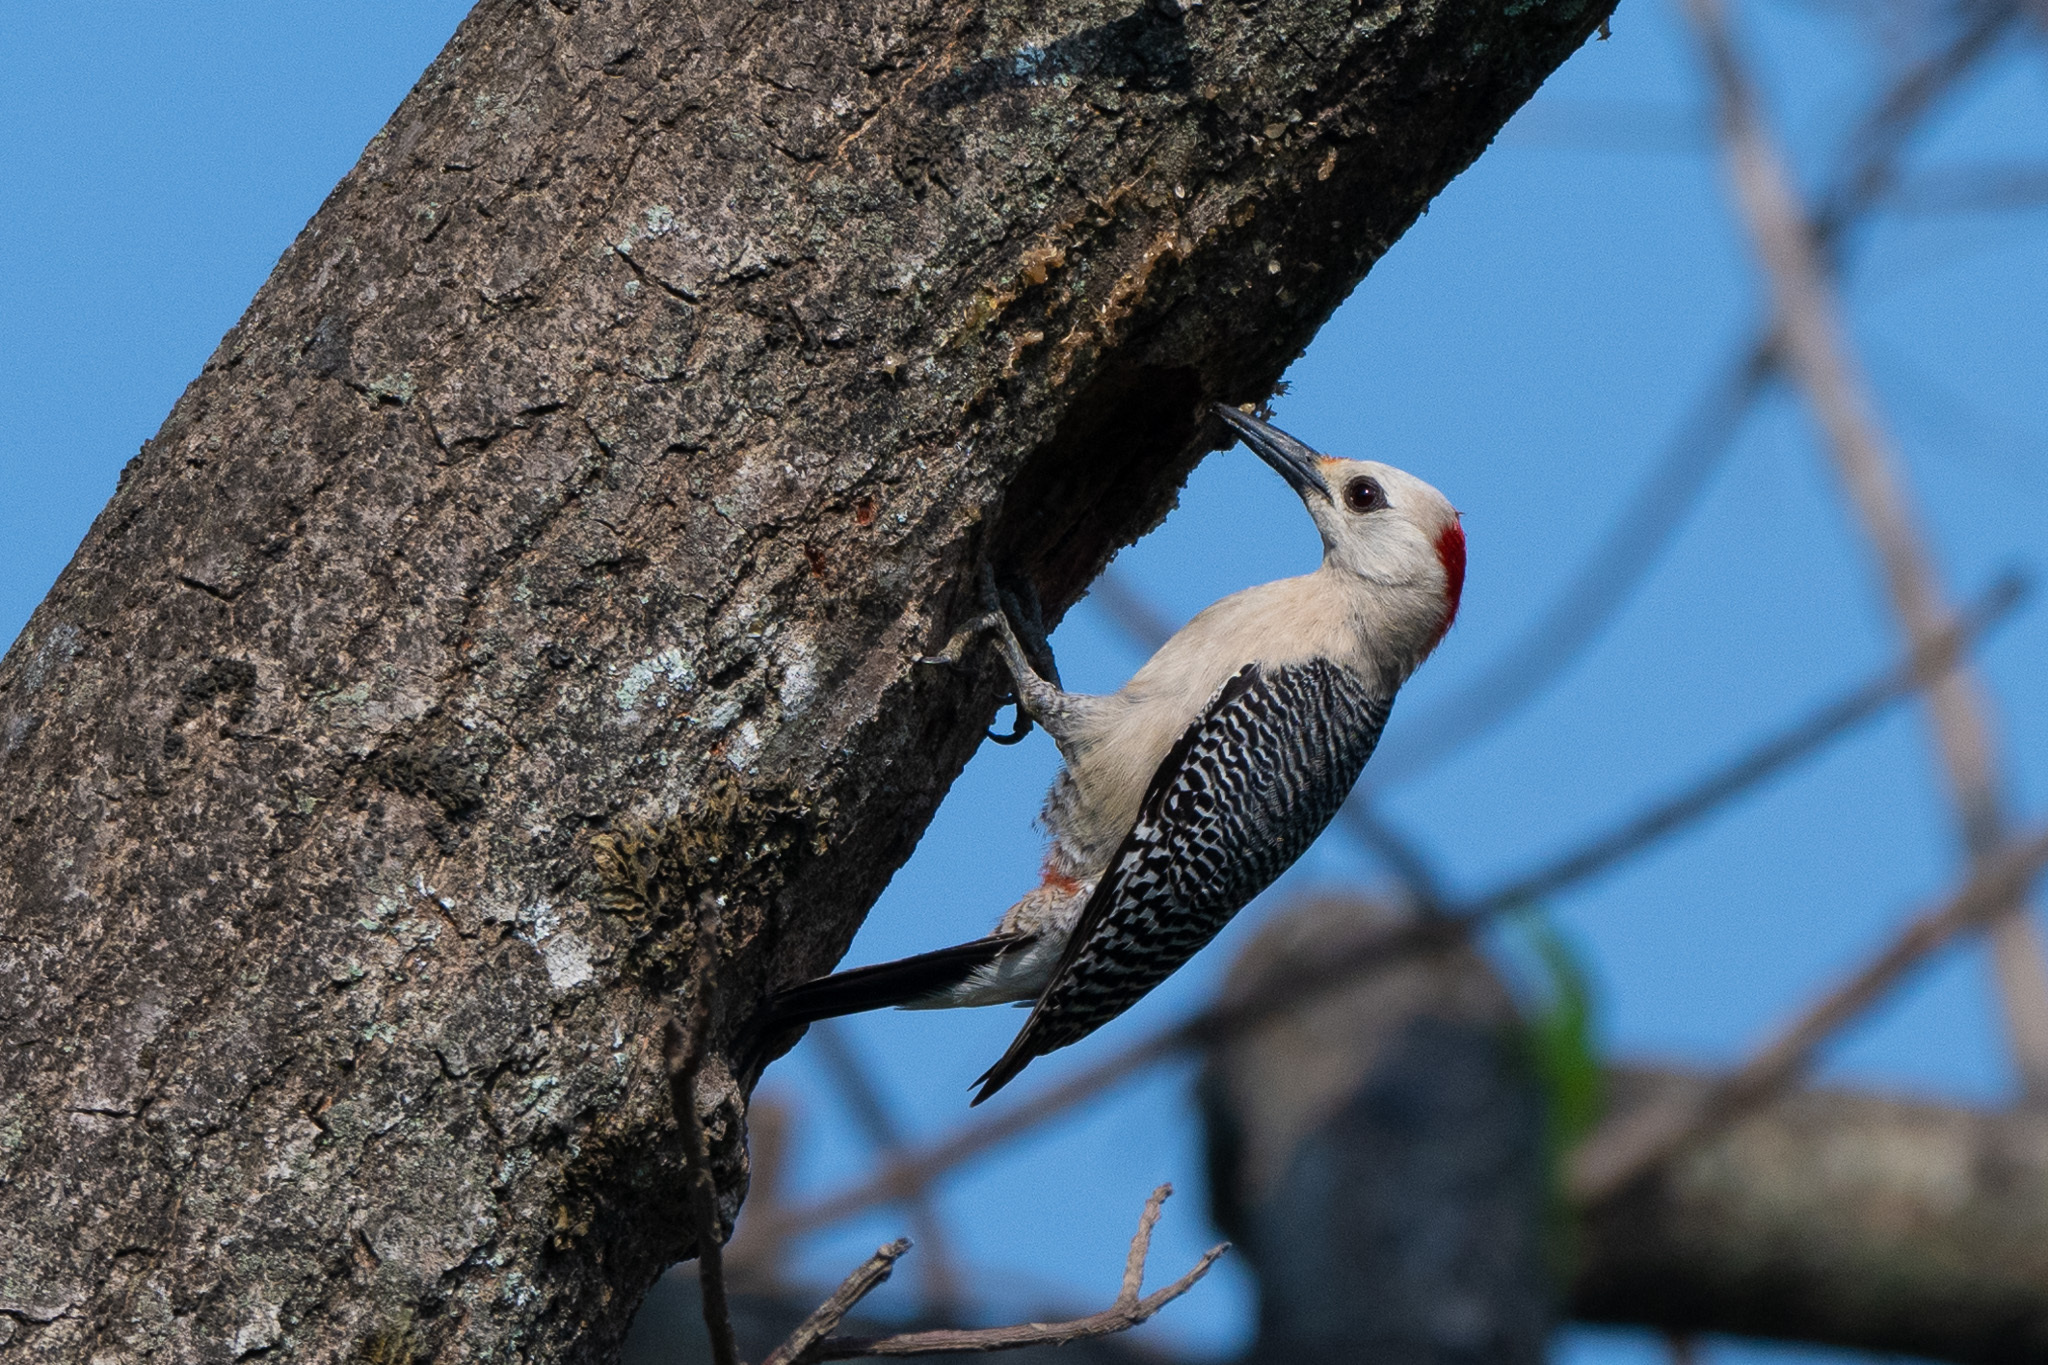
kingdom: Animalia
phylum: Chordata
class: Aves
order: Piciformes
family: Picidae
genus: Melanerpes
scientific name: Melanerpes aurifrons
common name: Golden-fronted woodpecker
